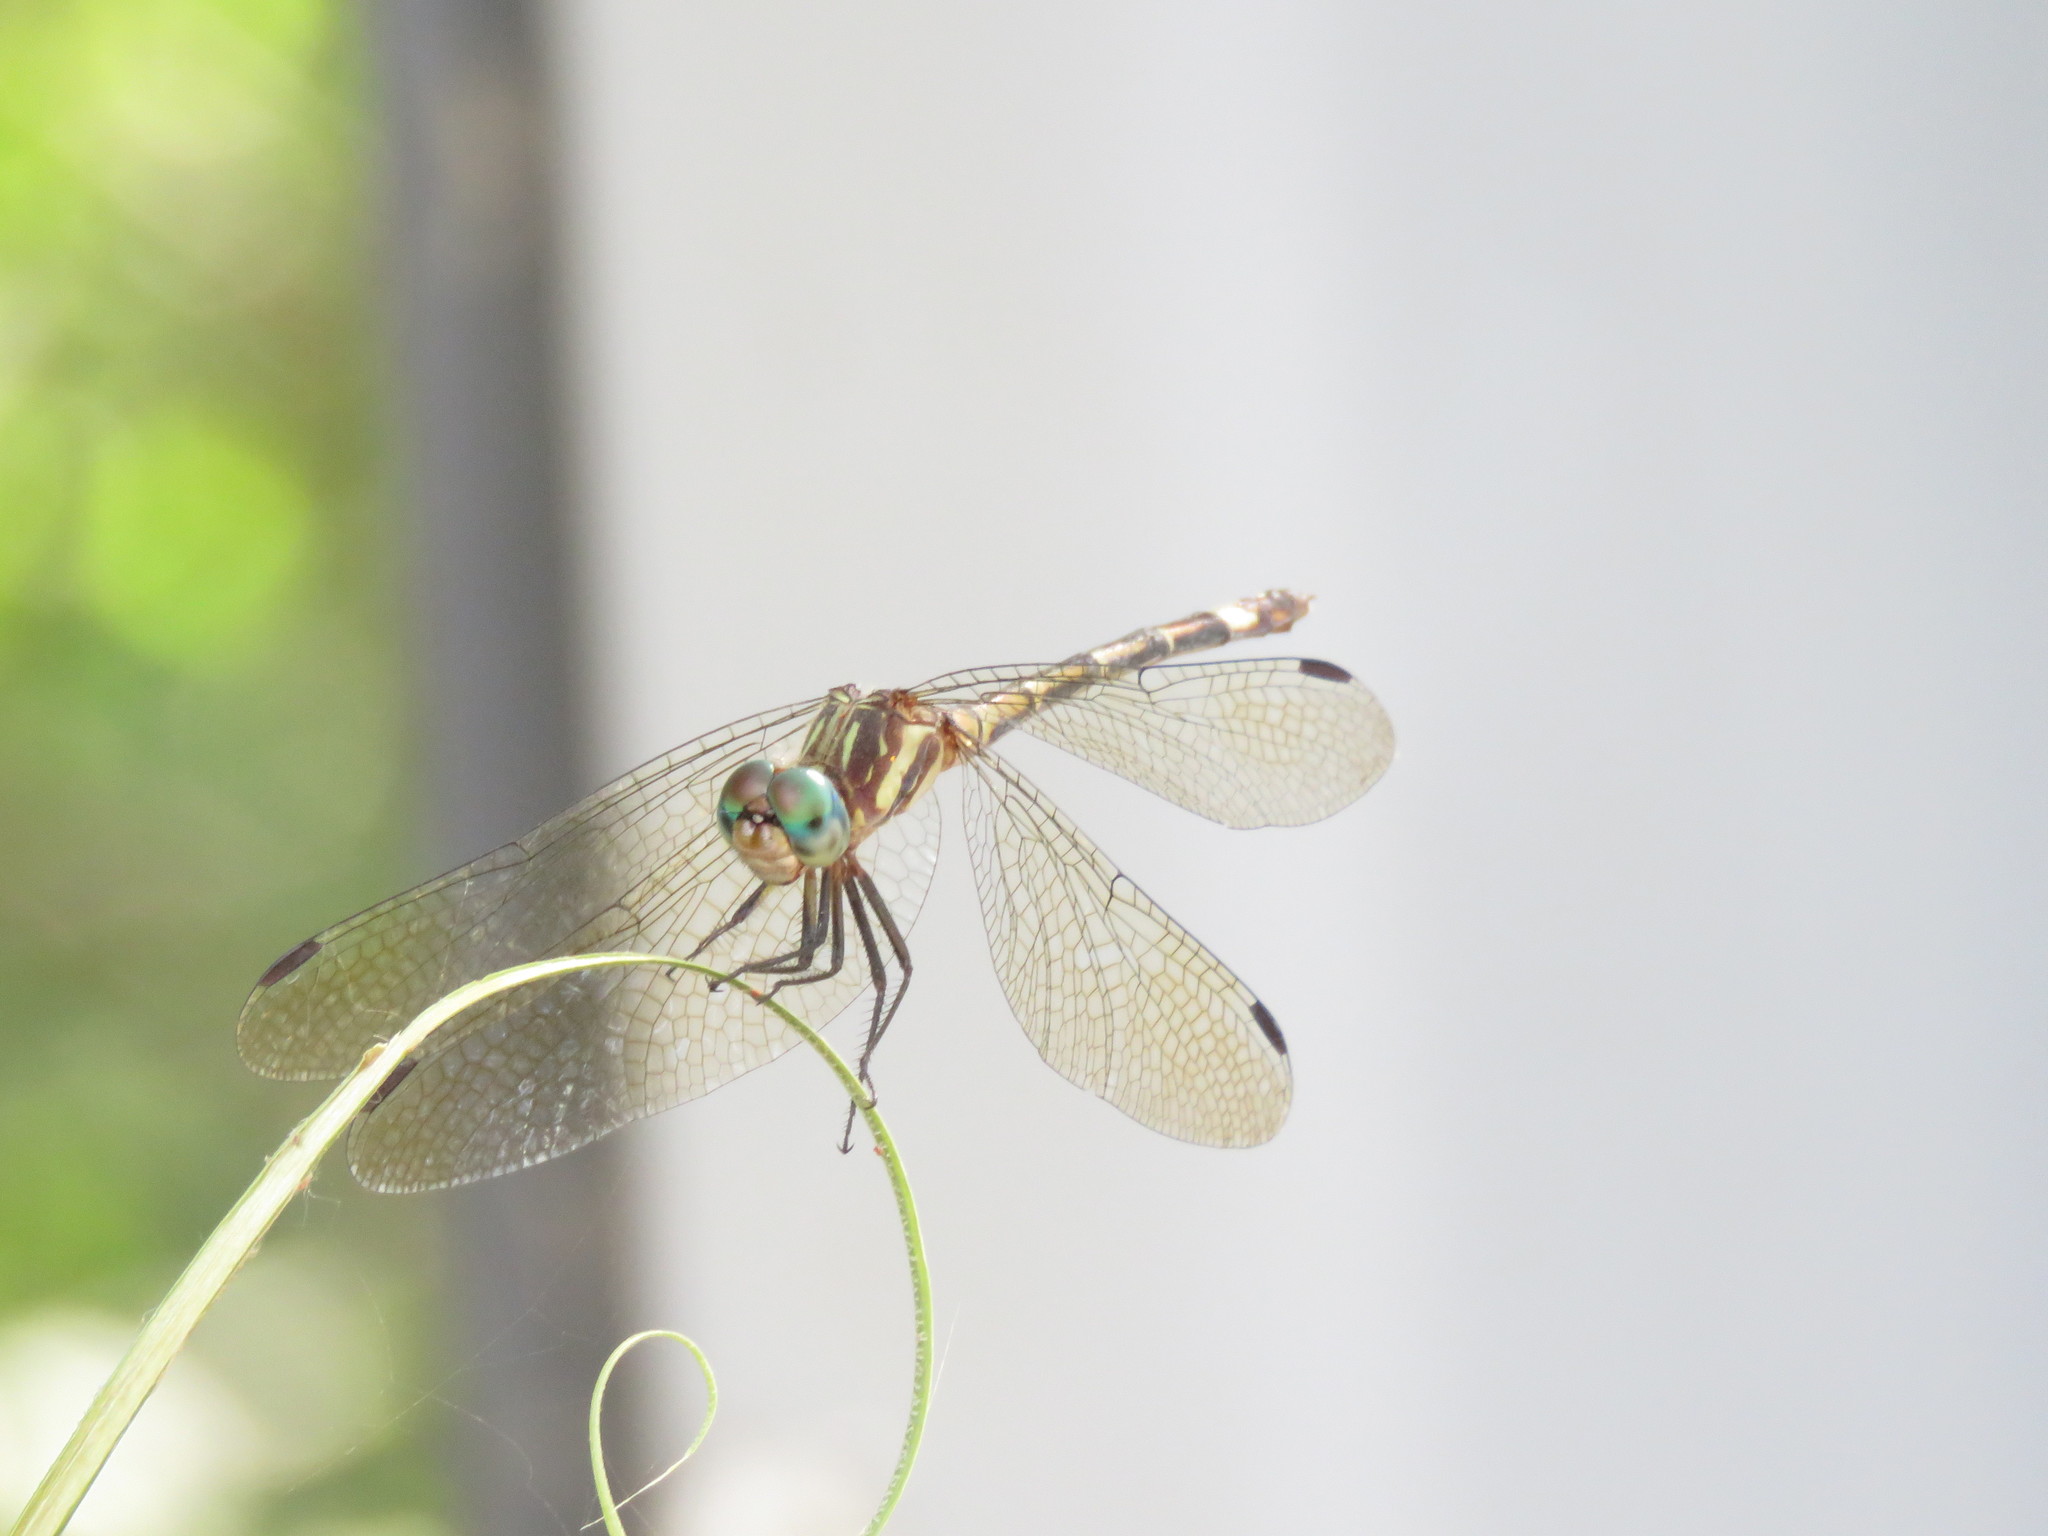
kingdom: Animalia
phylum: Arthropoda
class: Insecta
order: Odonata
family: Libellulidae
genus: Micrathyria
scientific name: Micrathyria hypodidyma
